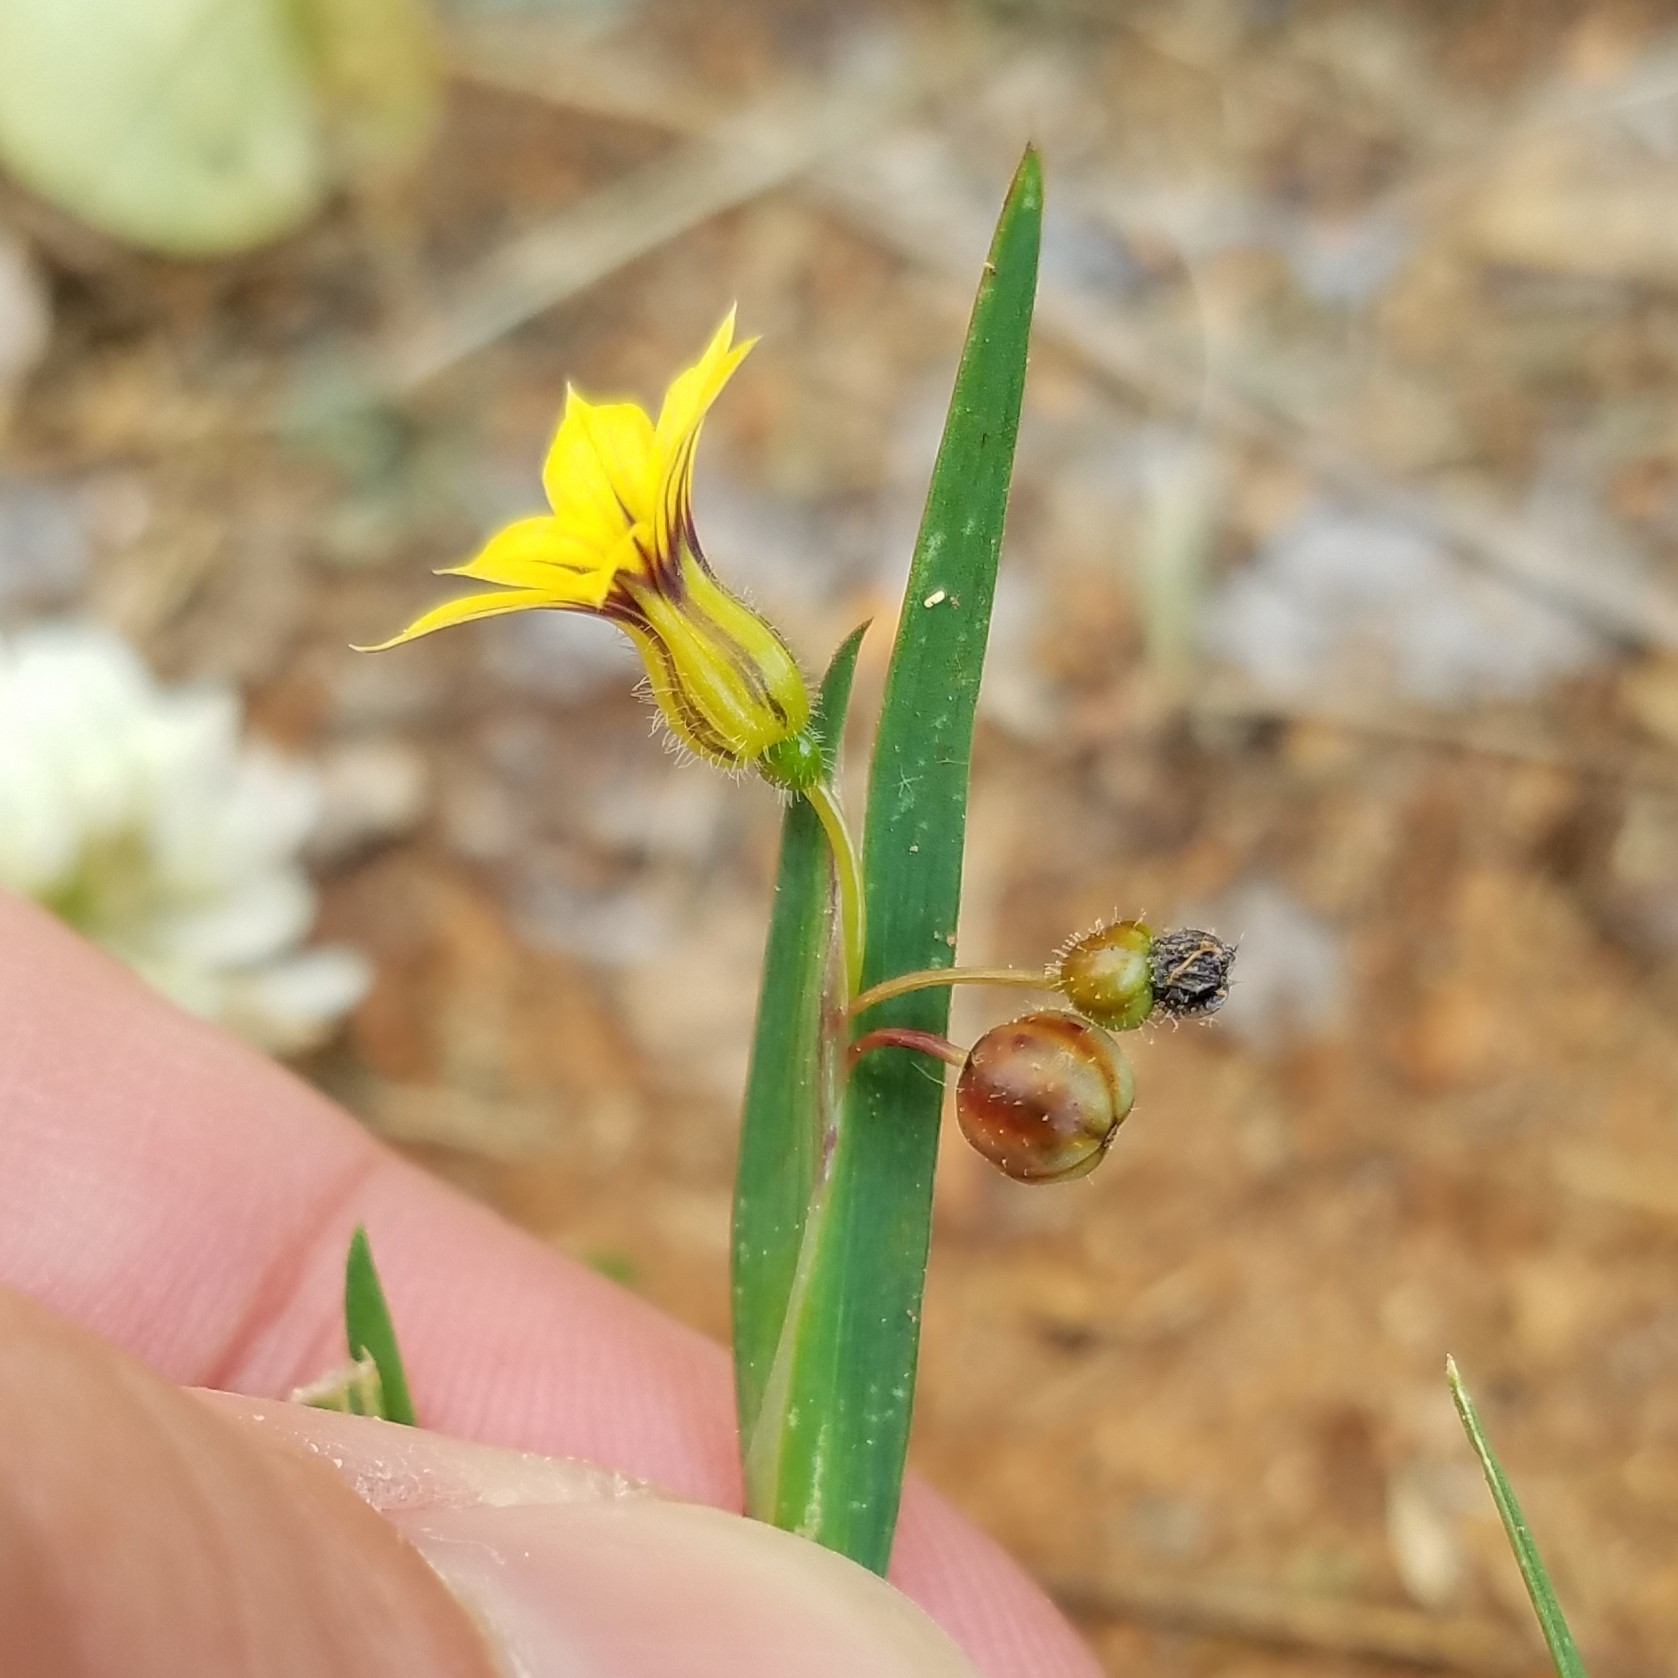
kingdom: Plantae
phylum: Tracheophyta
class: Liliopsida
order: Asparagales
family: Iridaceae
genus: Sisyrinchium
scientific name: Sisyrinchium micranthum
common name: Bermuda pigroot
